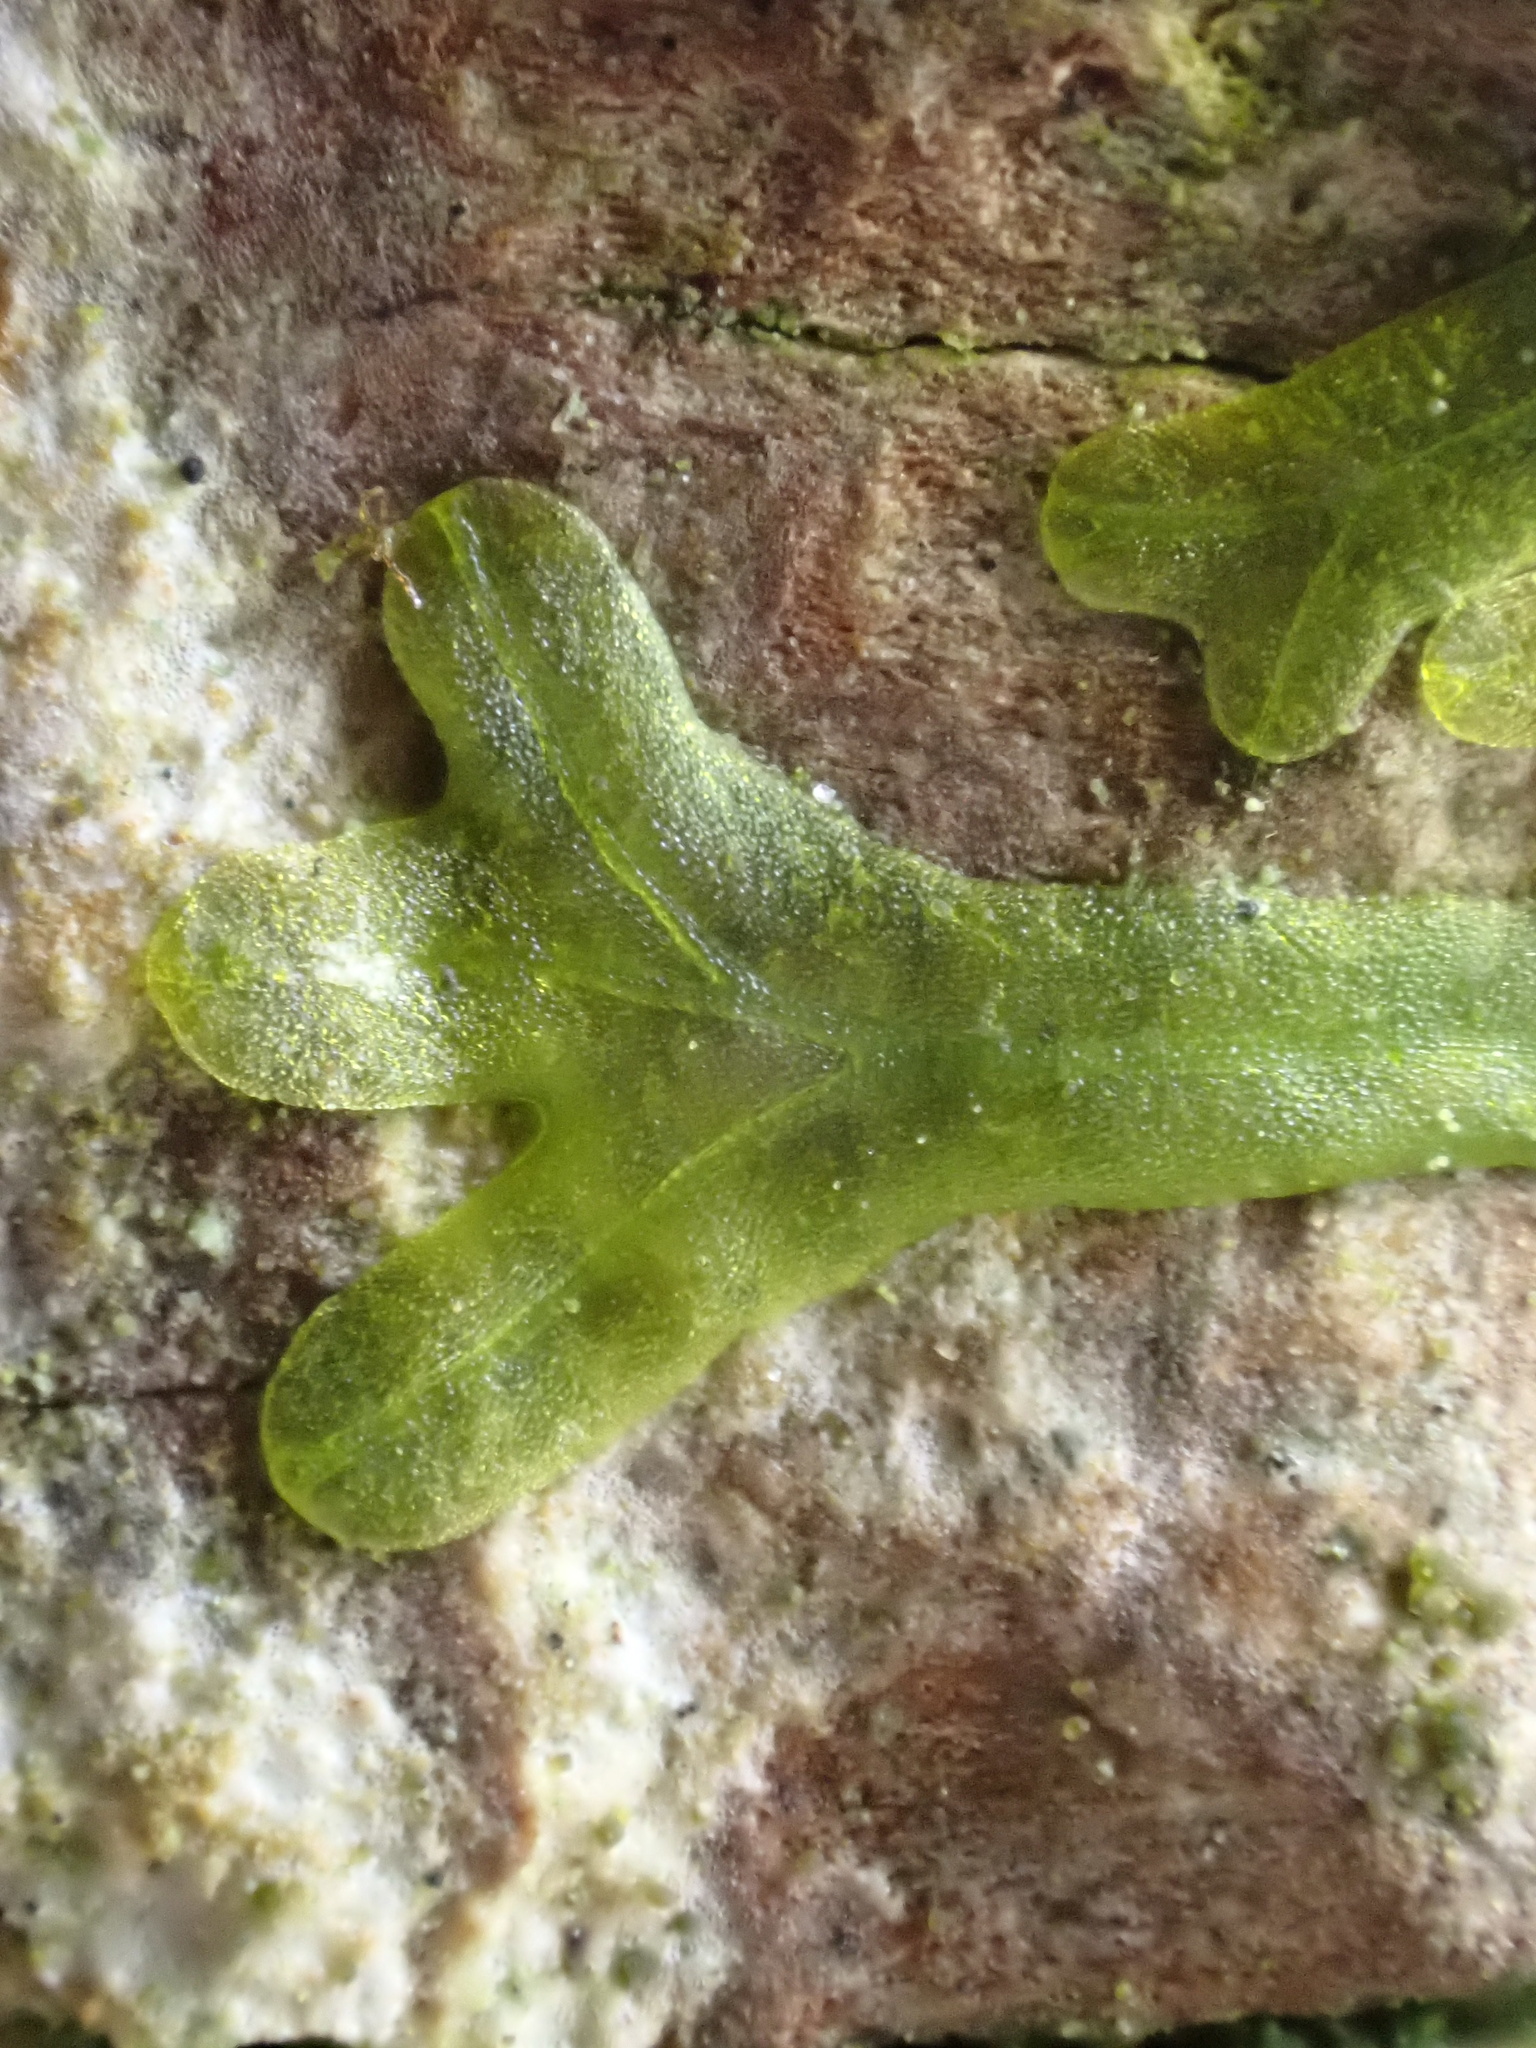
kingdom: Plantae
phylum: Marchantiophyta
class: Jungermanniopsida
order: Metzgeriales
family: Metzgeriaceae
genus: Metzgeria
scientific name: Metzgeria furcata
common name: Forked veilwort
